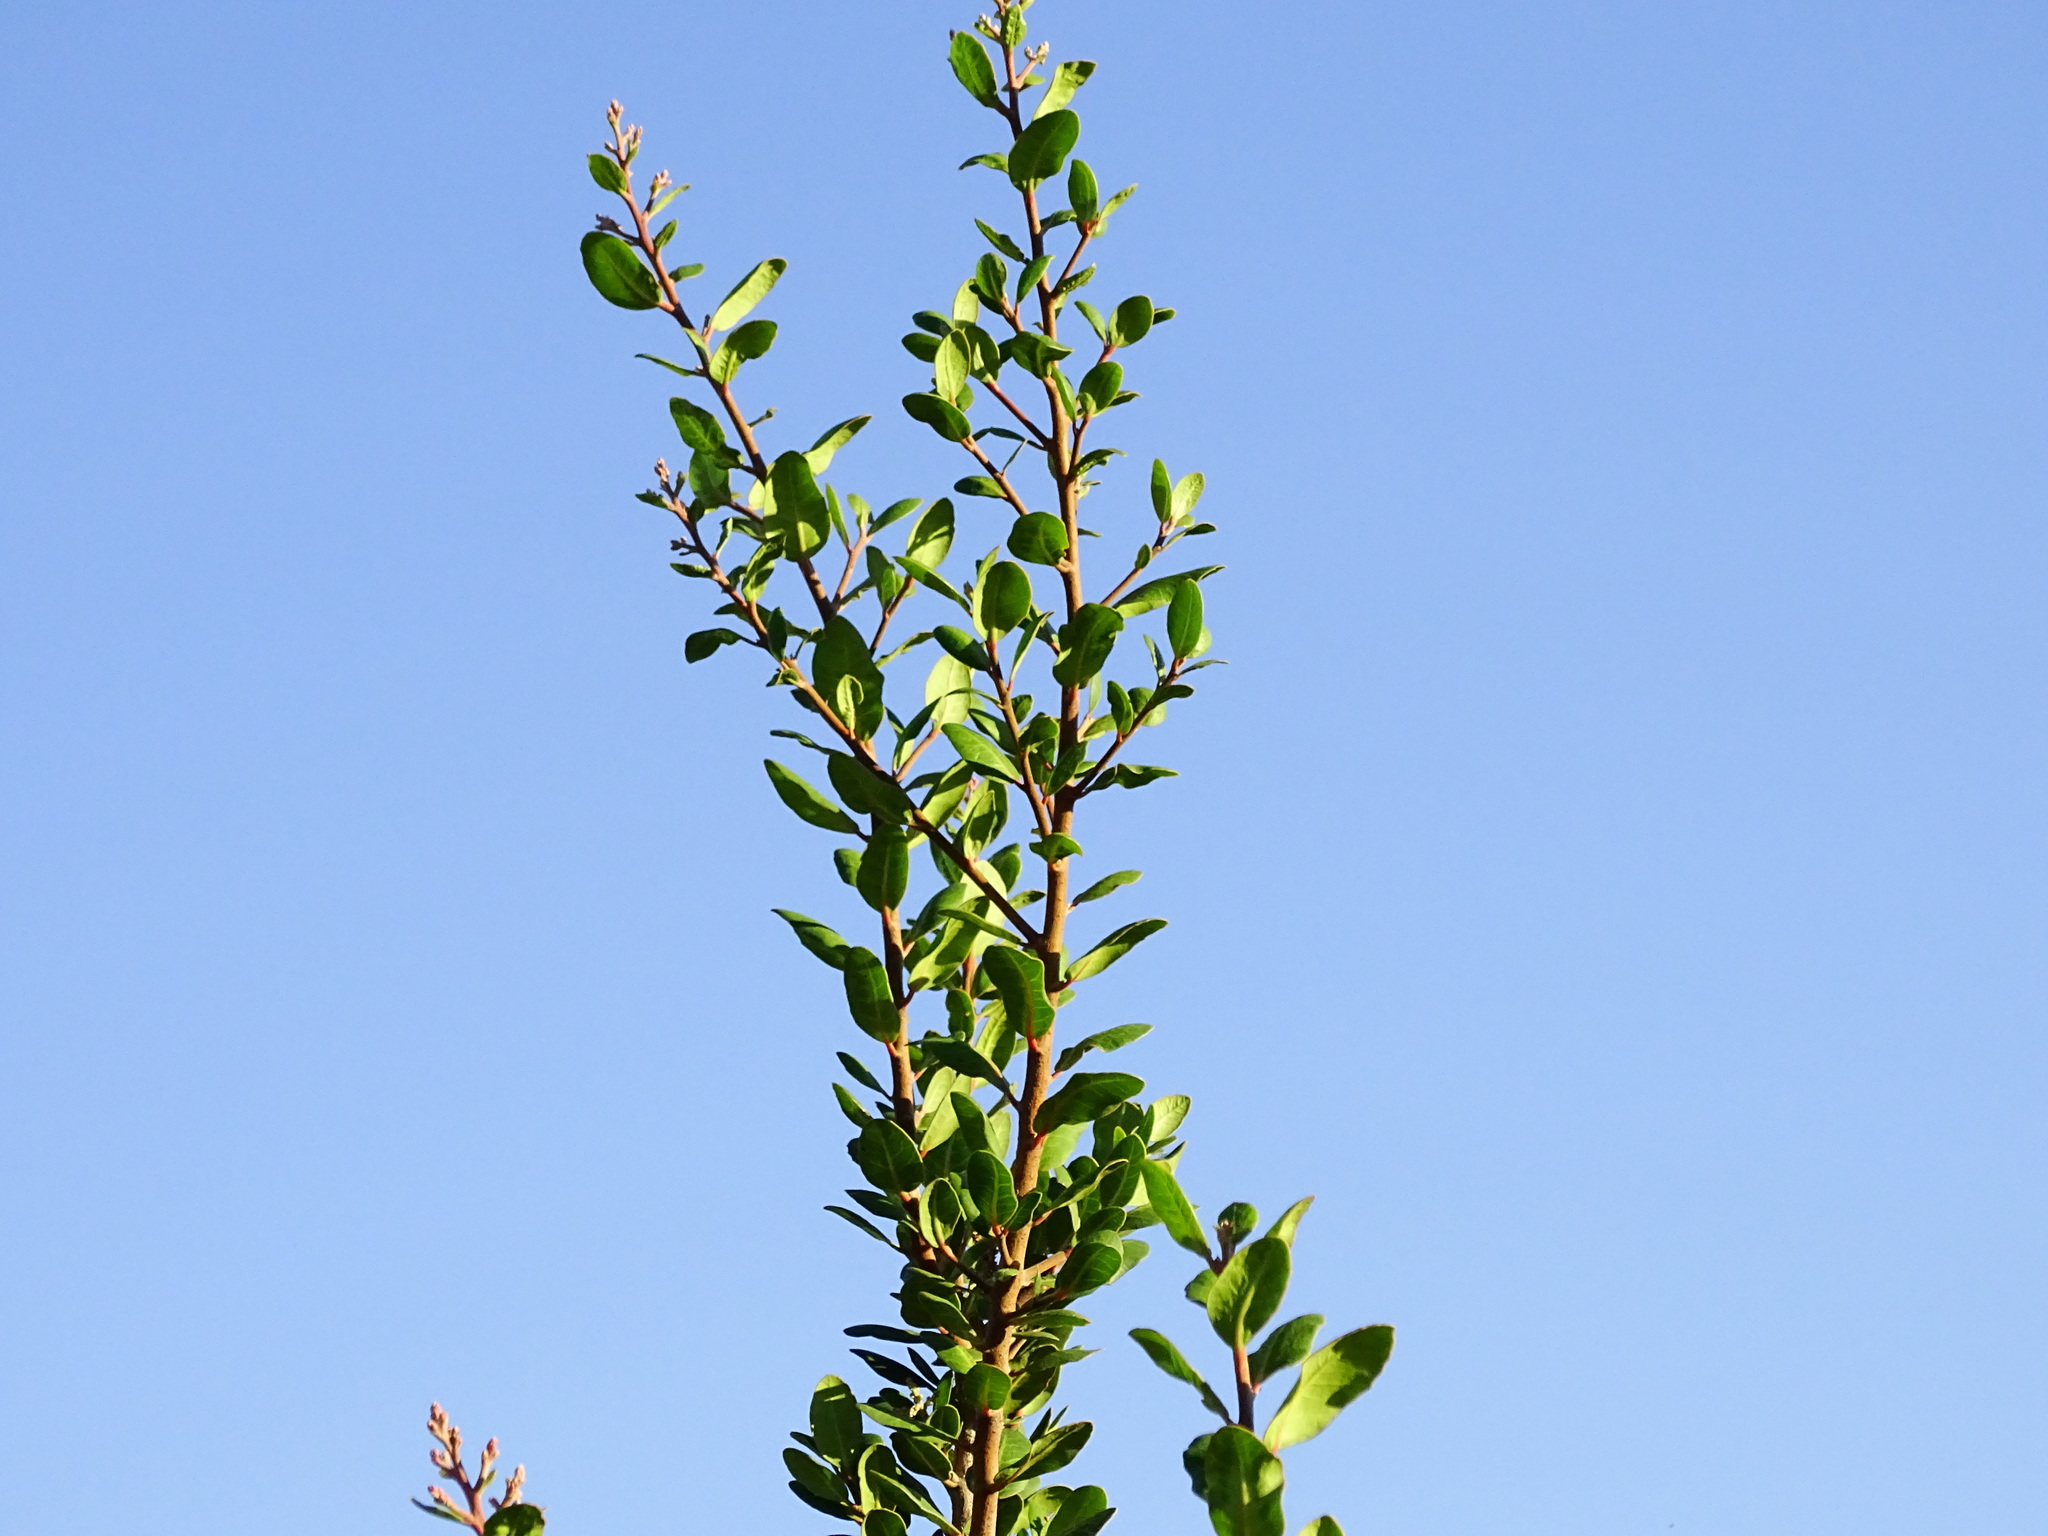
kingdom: Plantae
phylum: Tracheophyta
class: Magnoliopsida
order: Sapindales
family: Anacardiaceae
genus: Rhus
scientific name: Rhus integrifolia
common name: Lemonade sumac
